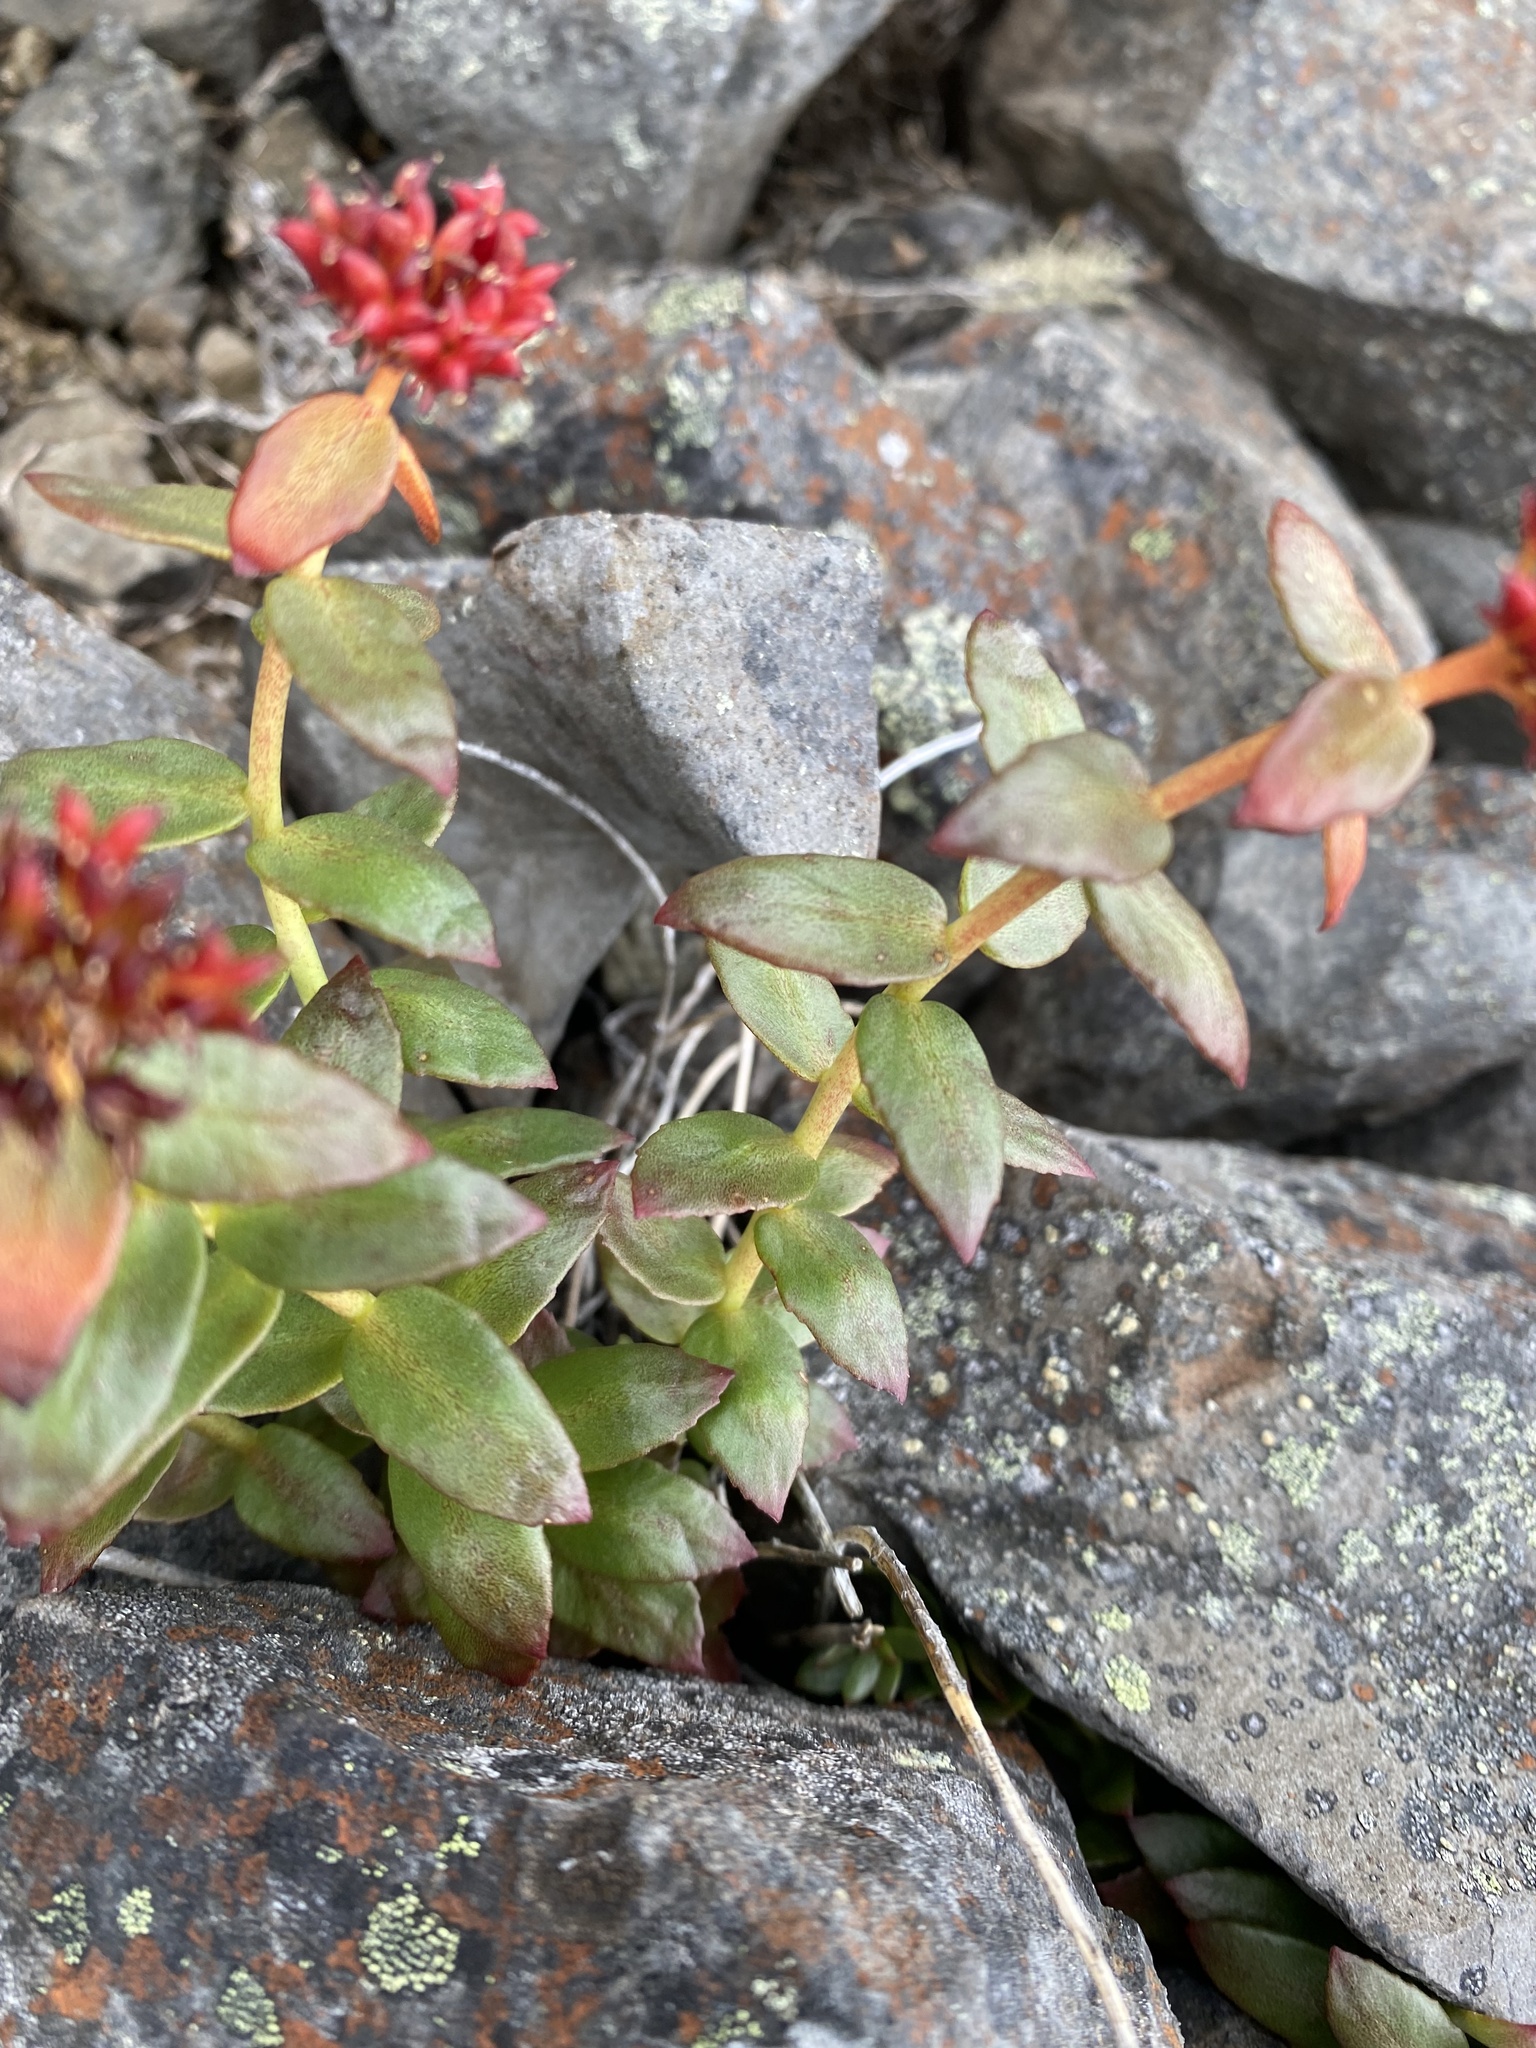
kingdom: Plantae
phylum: Tracheophyta
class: Magnoliopsida
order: Saxifragales
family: Crassulaceae
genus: Rhodiola
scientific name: Rhodiola rosea
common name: Roseroot
